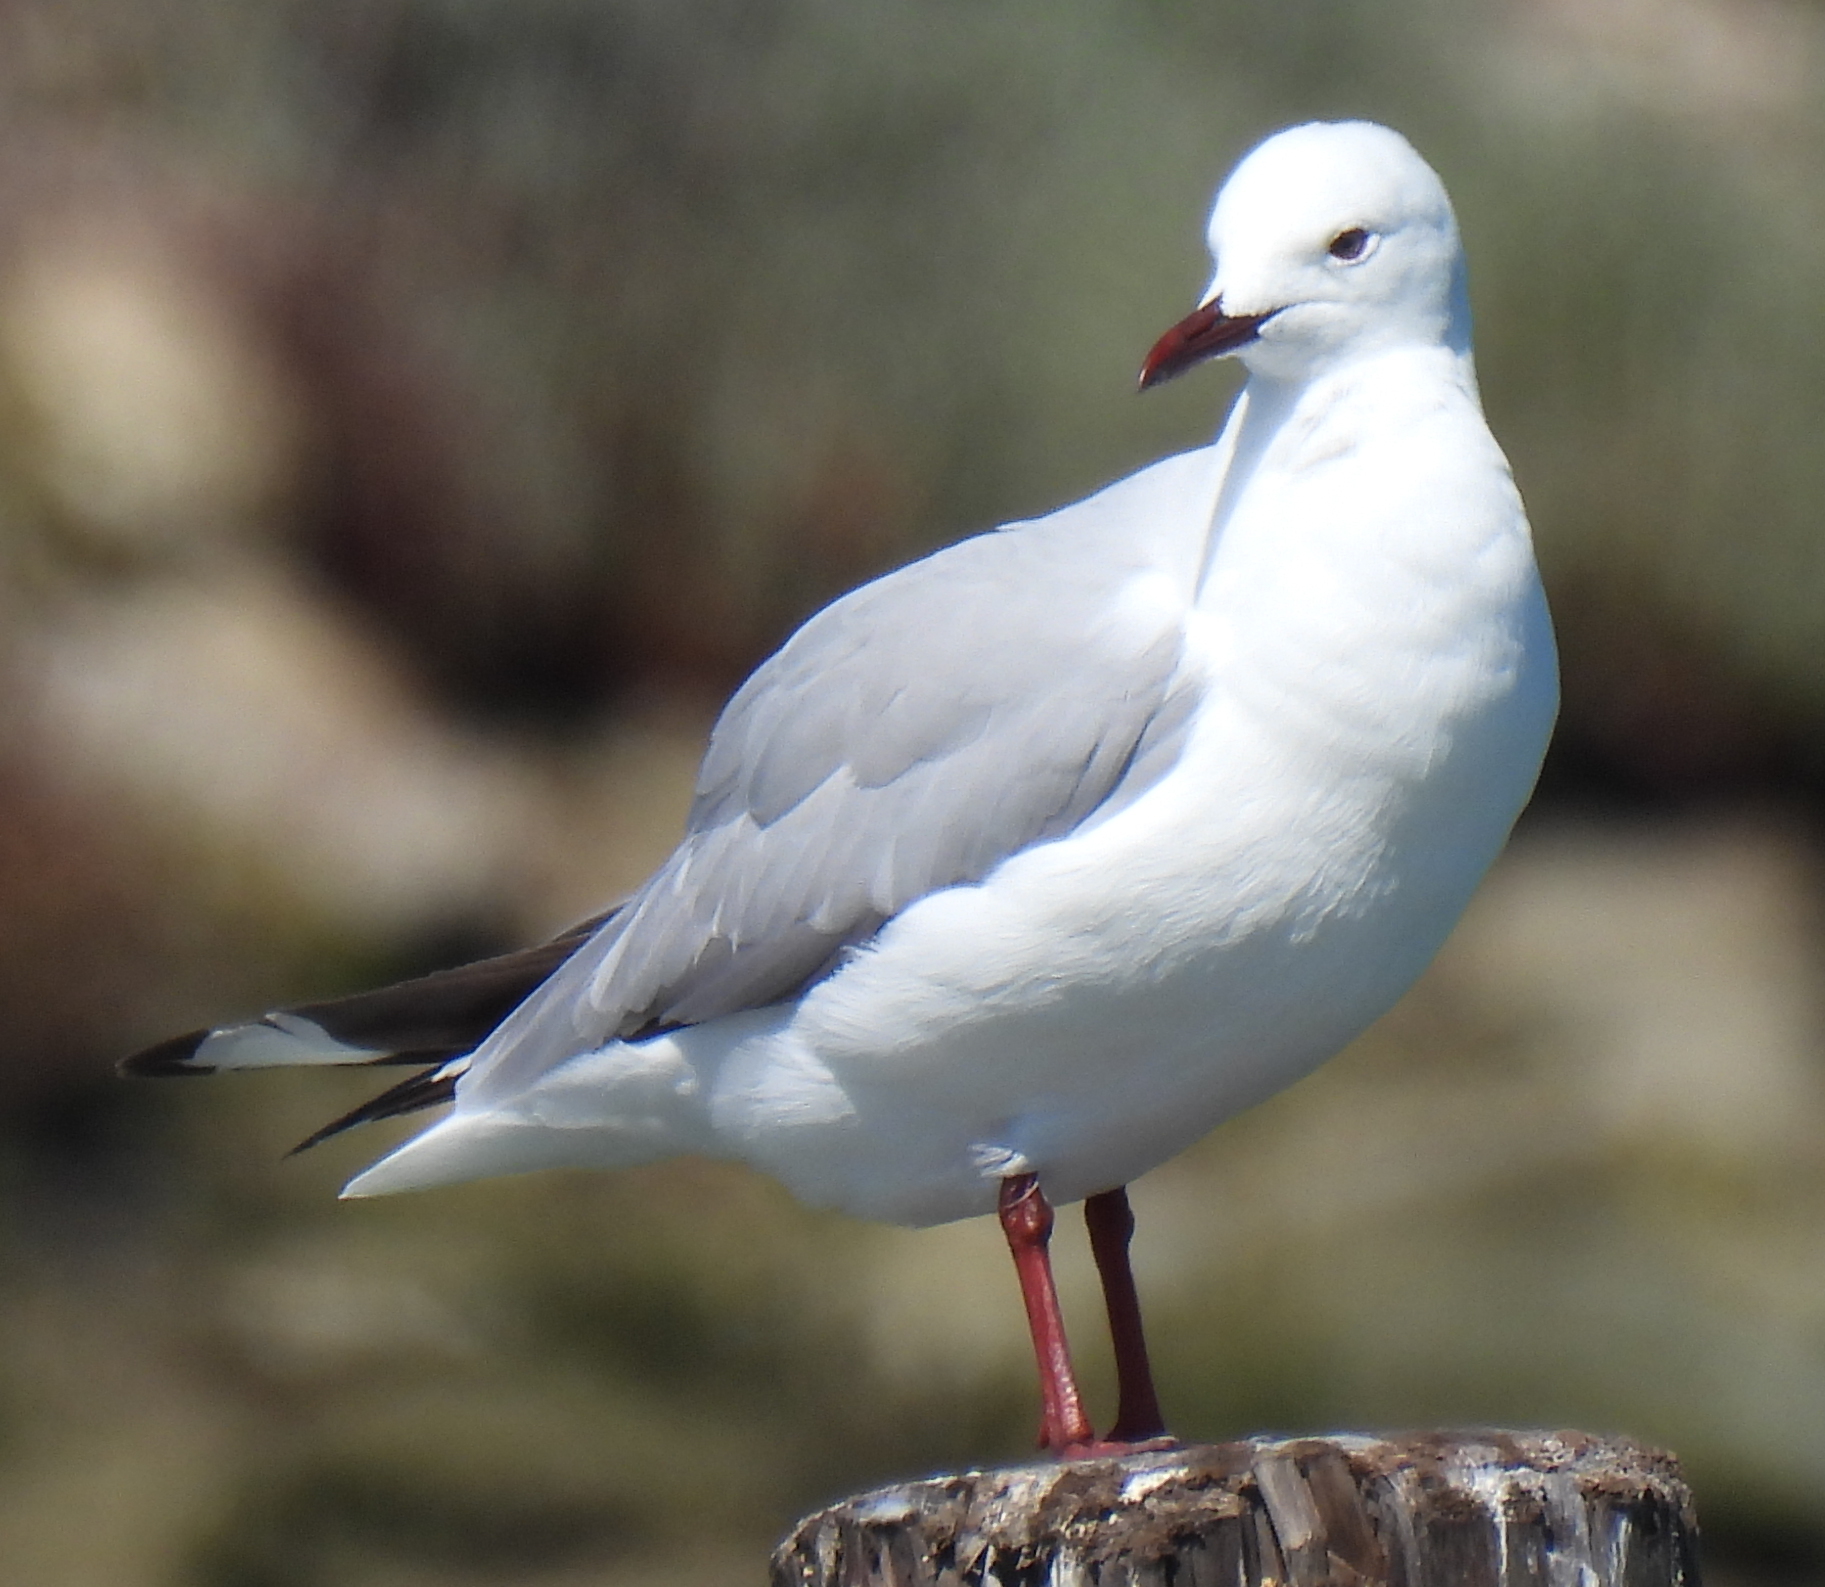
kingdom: Animalia
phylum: Chordata
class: Aves
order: Charadriiformes
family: Laridae
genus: Chroicocephalus
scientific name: Chroicocephalus hartlaubii
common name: Hartlaub's gull
